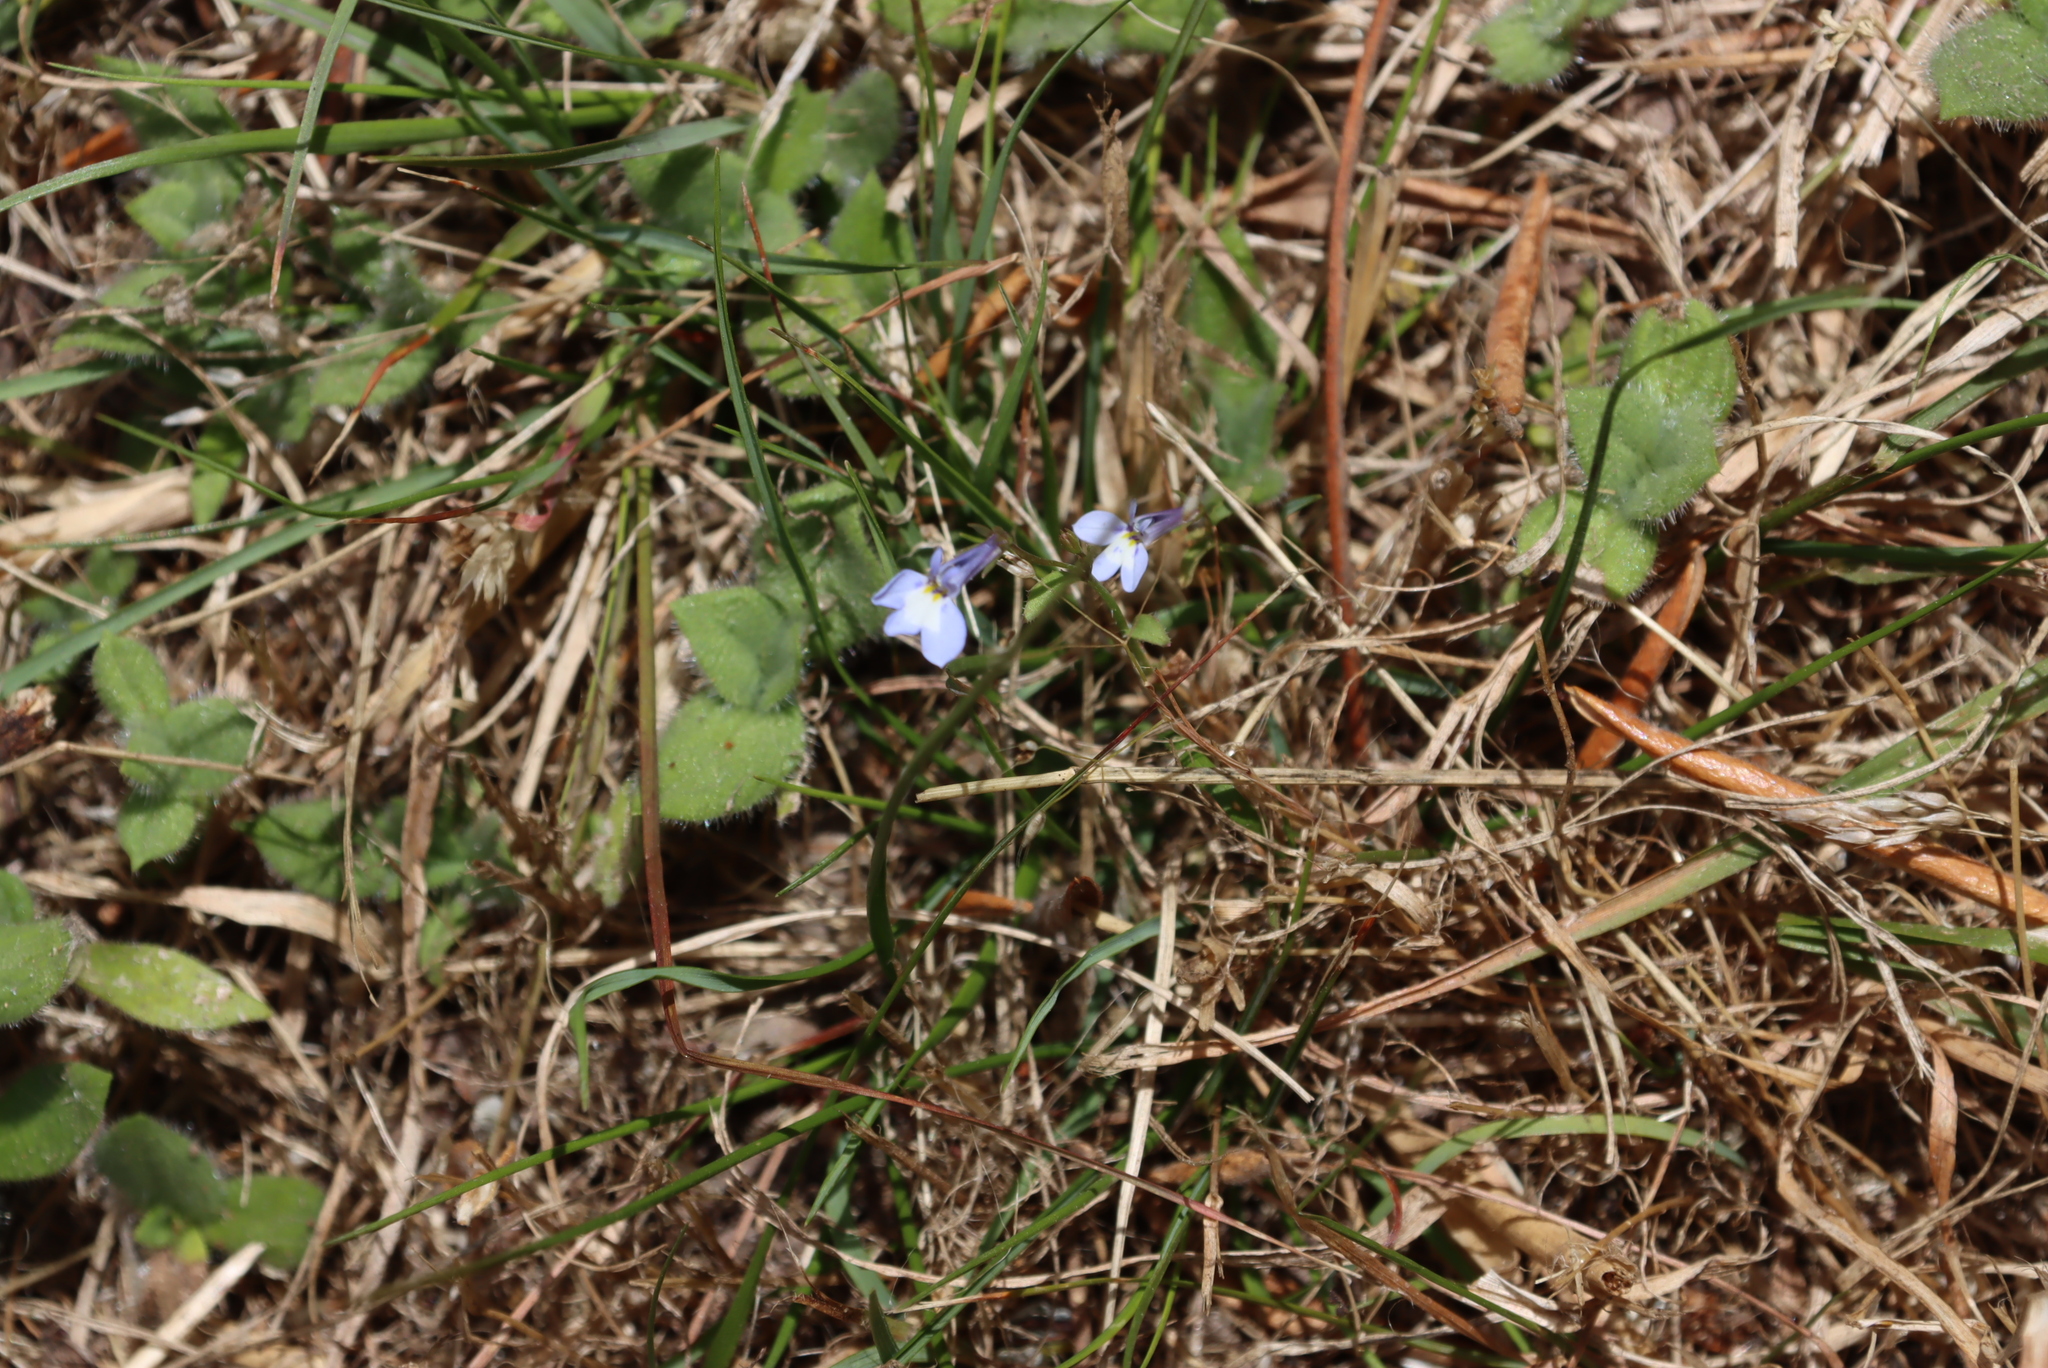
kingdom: Plantae
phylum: Tracheophyta
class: Magnoliopsida
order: Asterales
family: Campanulaceae
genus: Lobelia
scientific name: Lobelia erinus
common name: Edging lobelia
